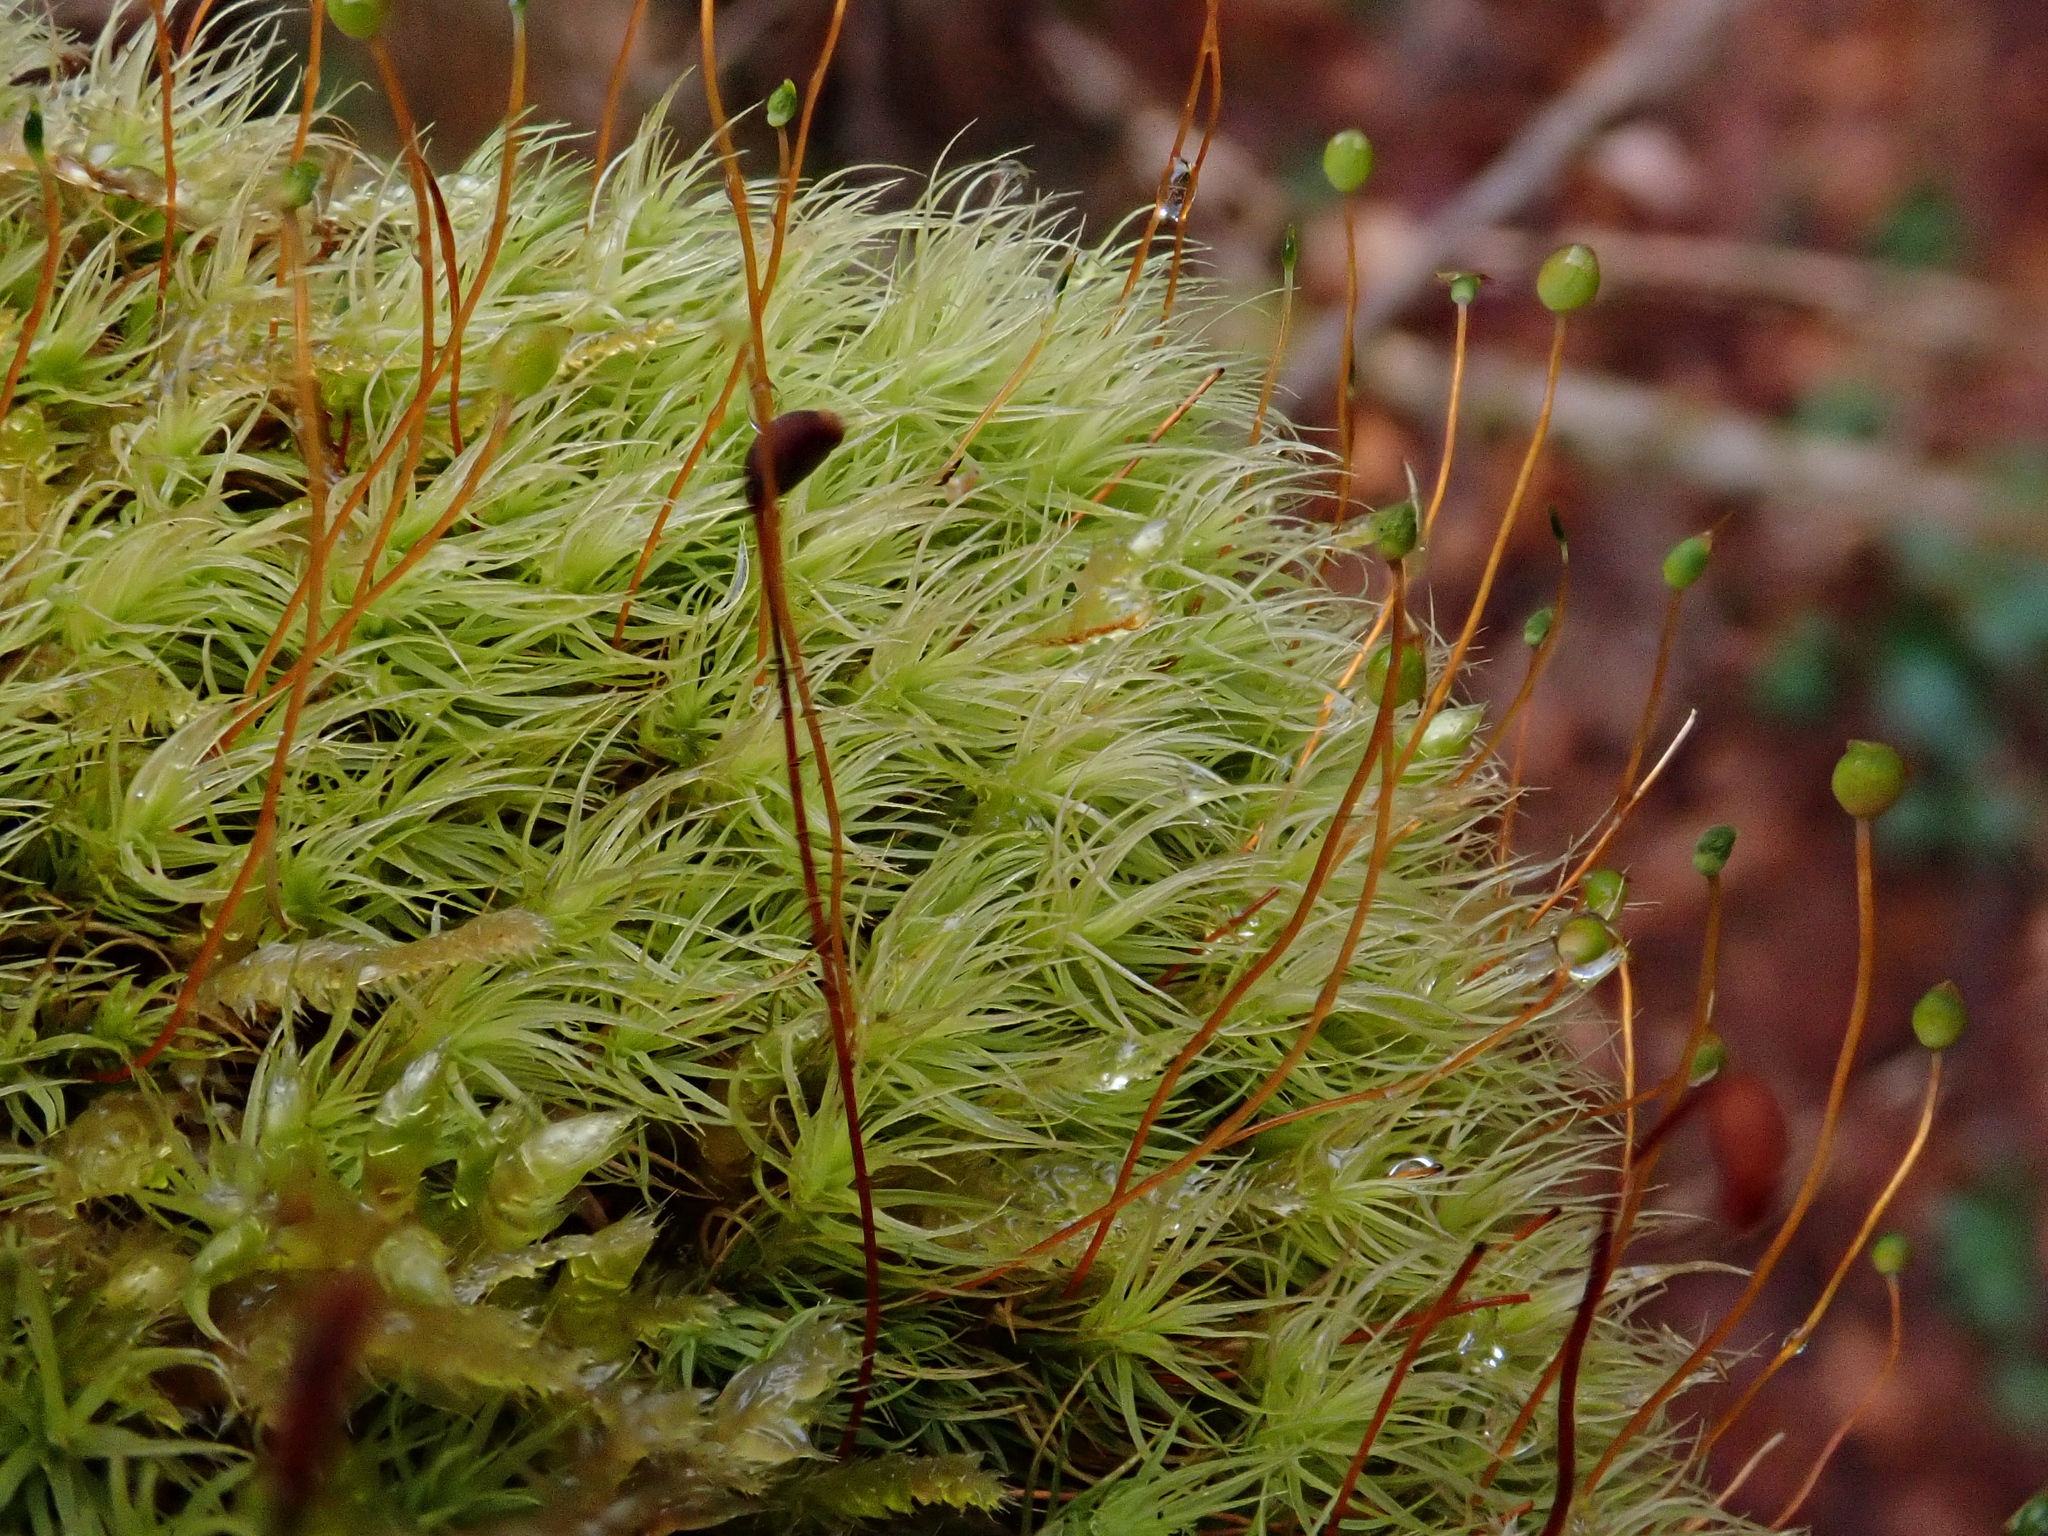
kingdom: Plantae
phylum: Bryophyta
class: Bryopsida
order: Bartramiales
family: Bartramiaceae
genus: Bartramia
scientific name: Bartramia ithyphylla
